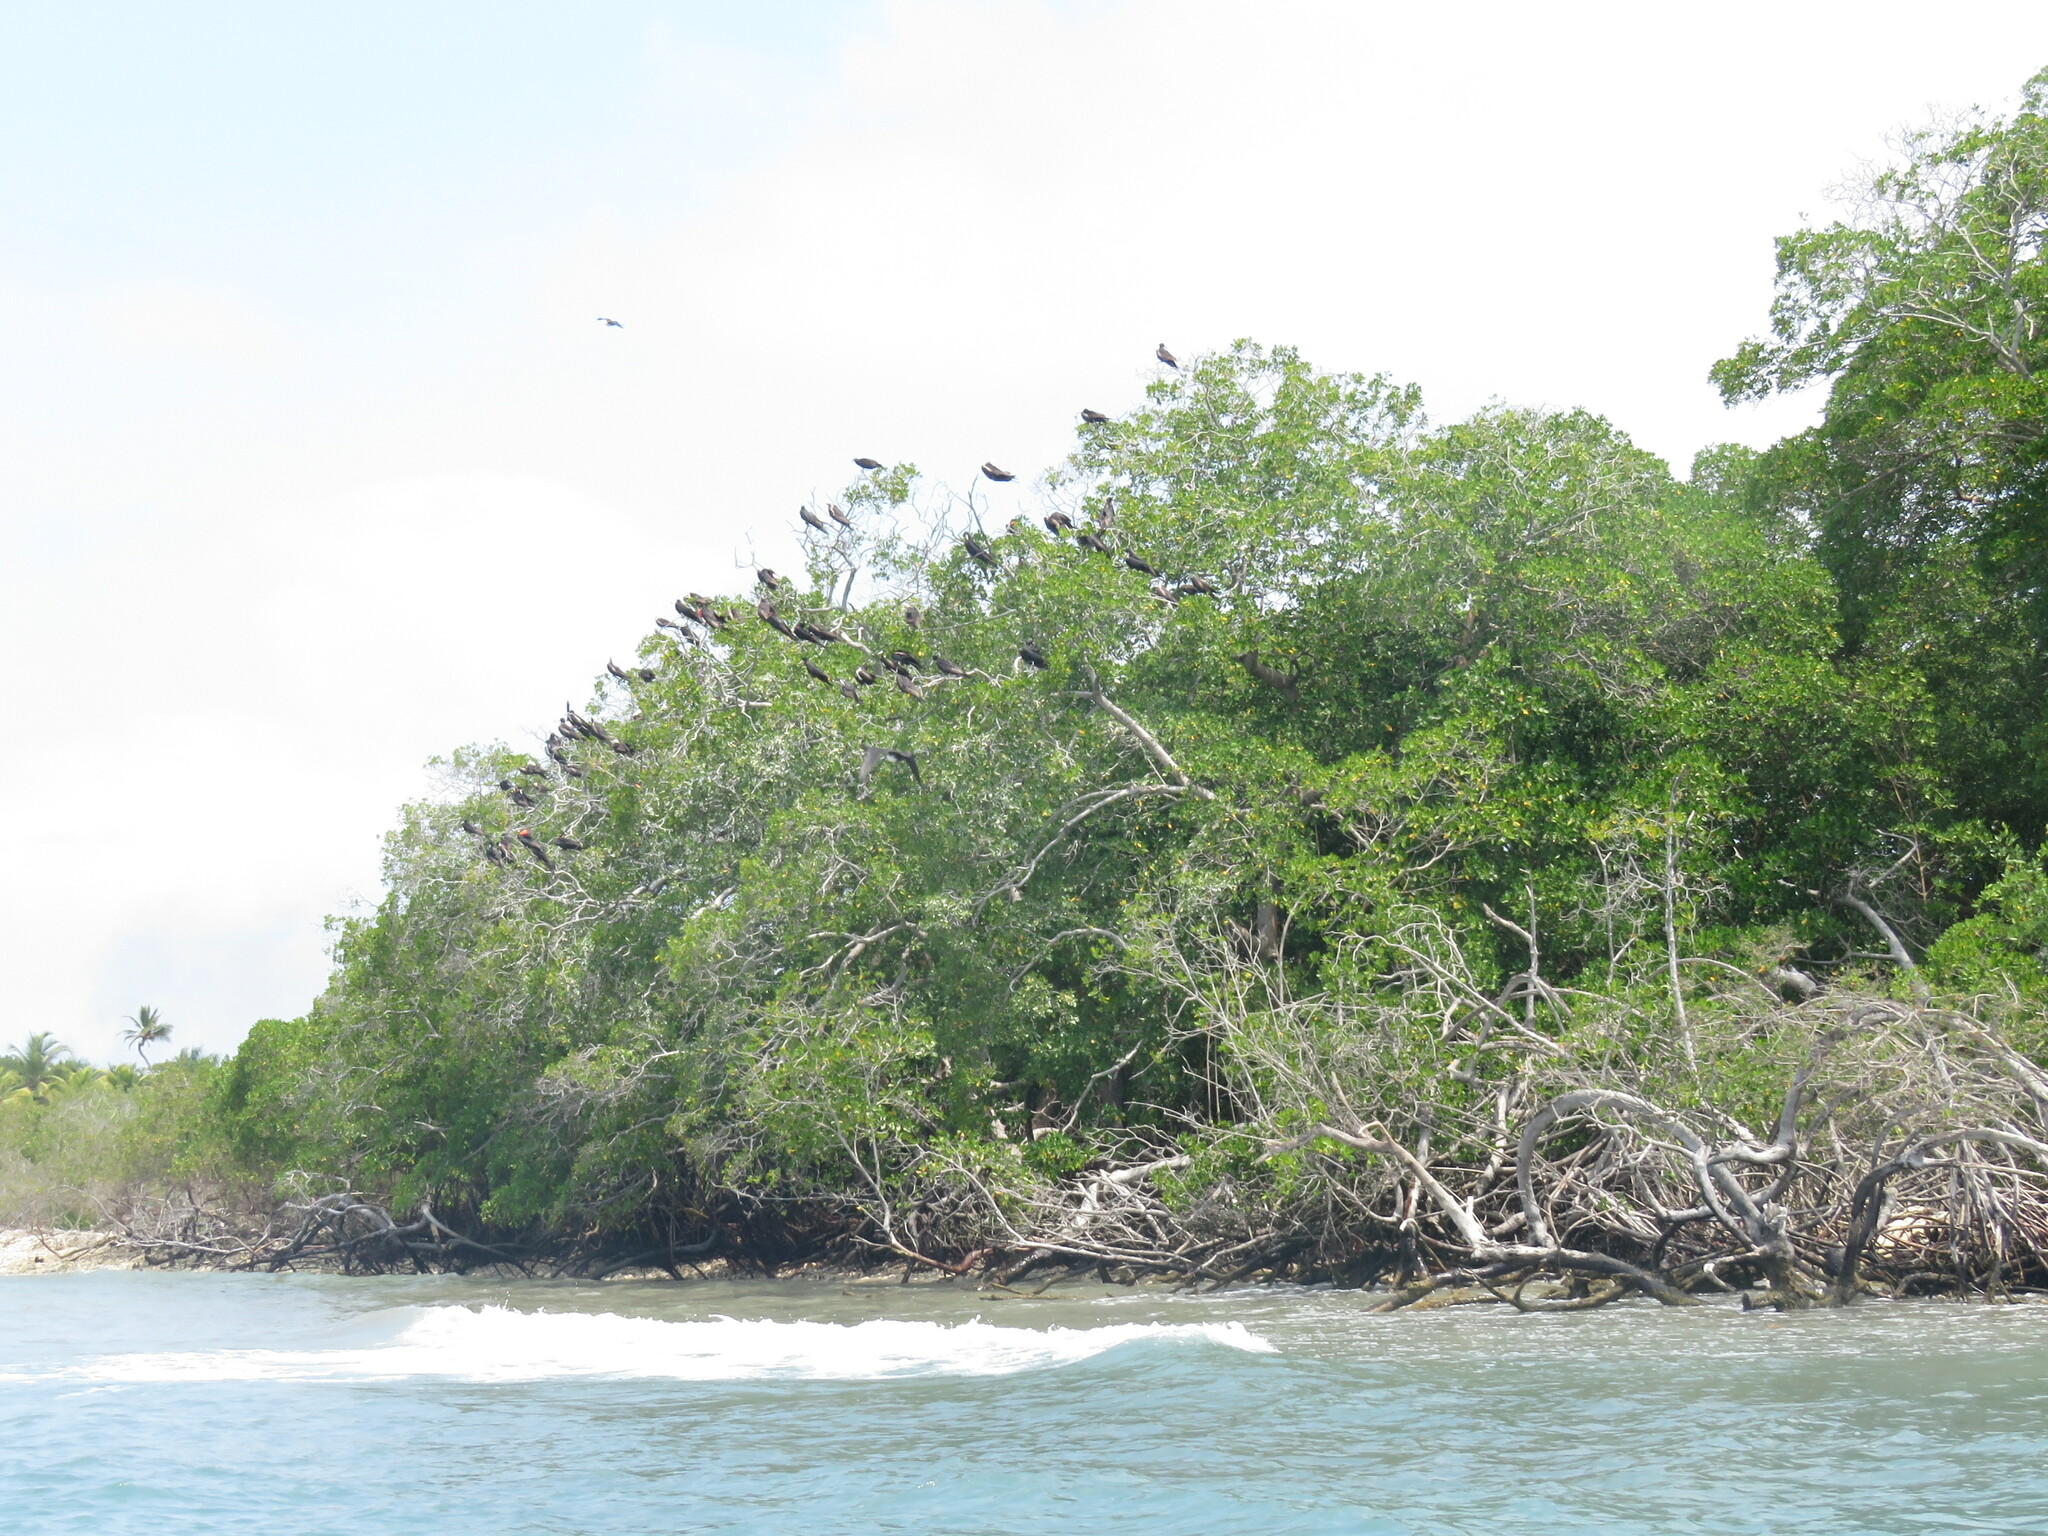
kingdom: Animalia
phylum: Chordata
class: Aves
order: Suliformes
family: Fregatidae
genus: Fregata
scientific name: Fregata magnificens
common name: Magnificent frigatebird
